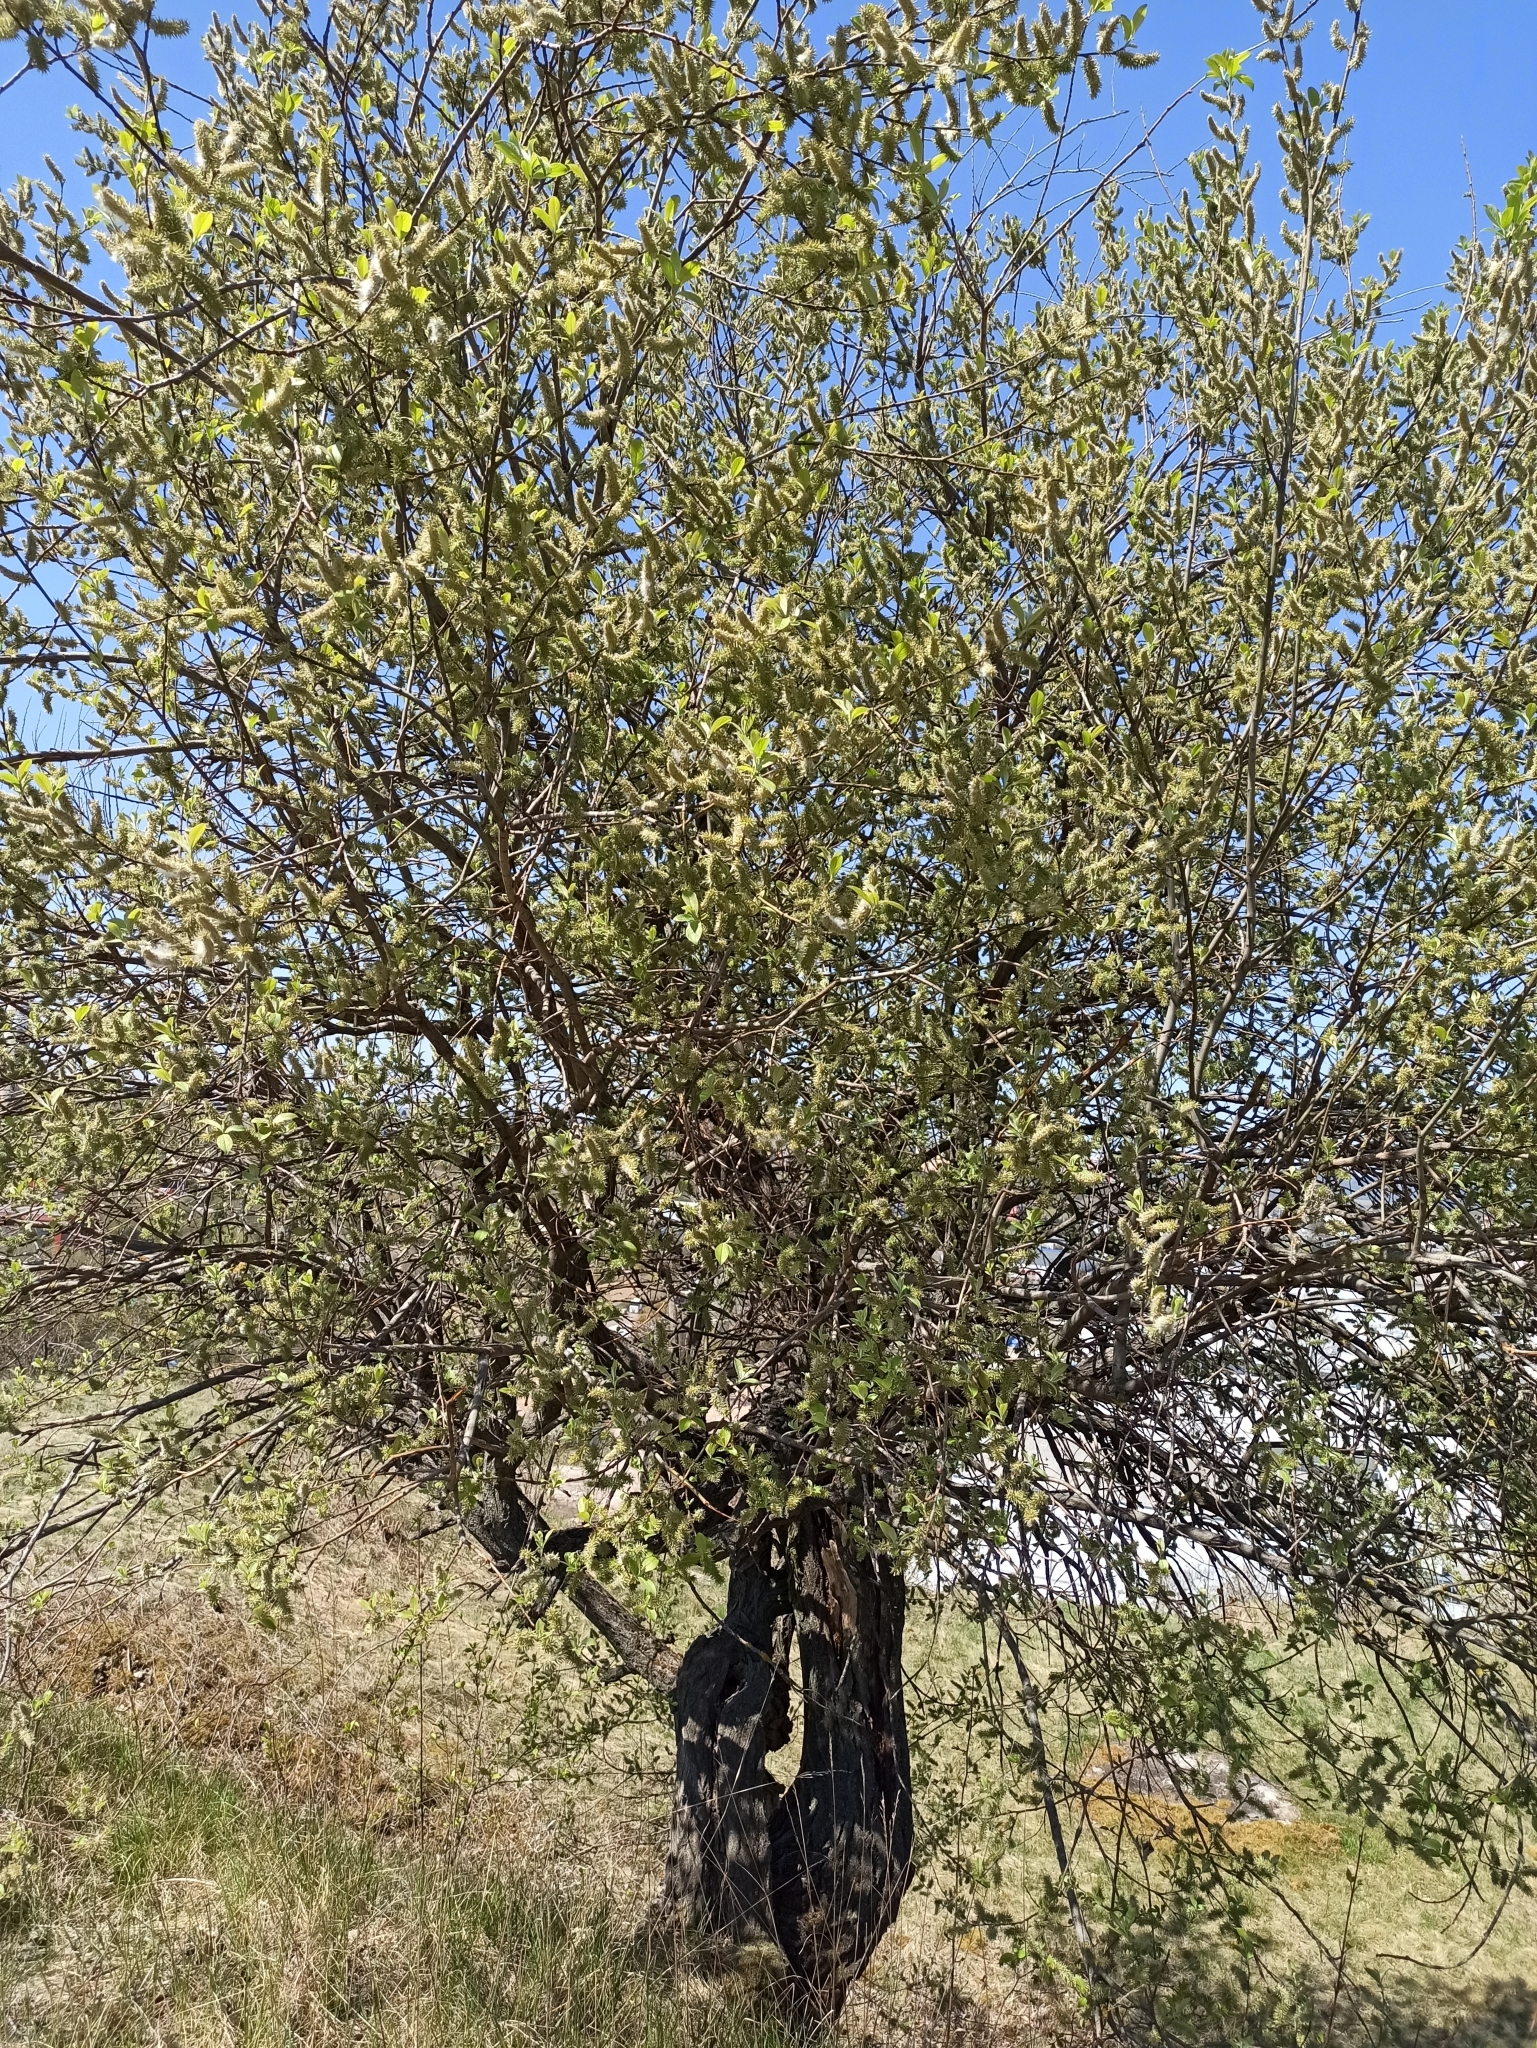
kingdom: Plantae
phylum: Tracheophyta
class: Magnoliopsida
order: Malpighiales
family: Salicaceae
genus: Salix
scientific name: Salix caprea
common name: Goat willow
